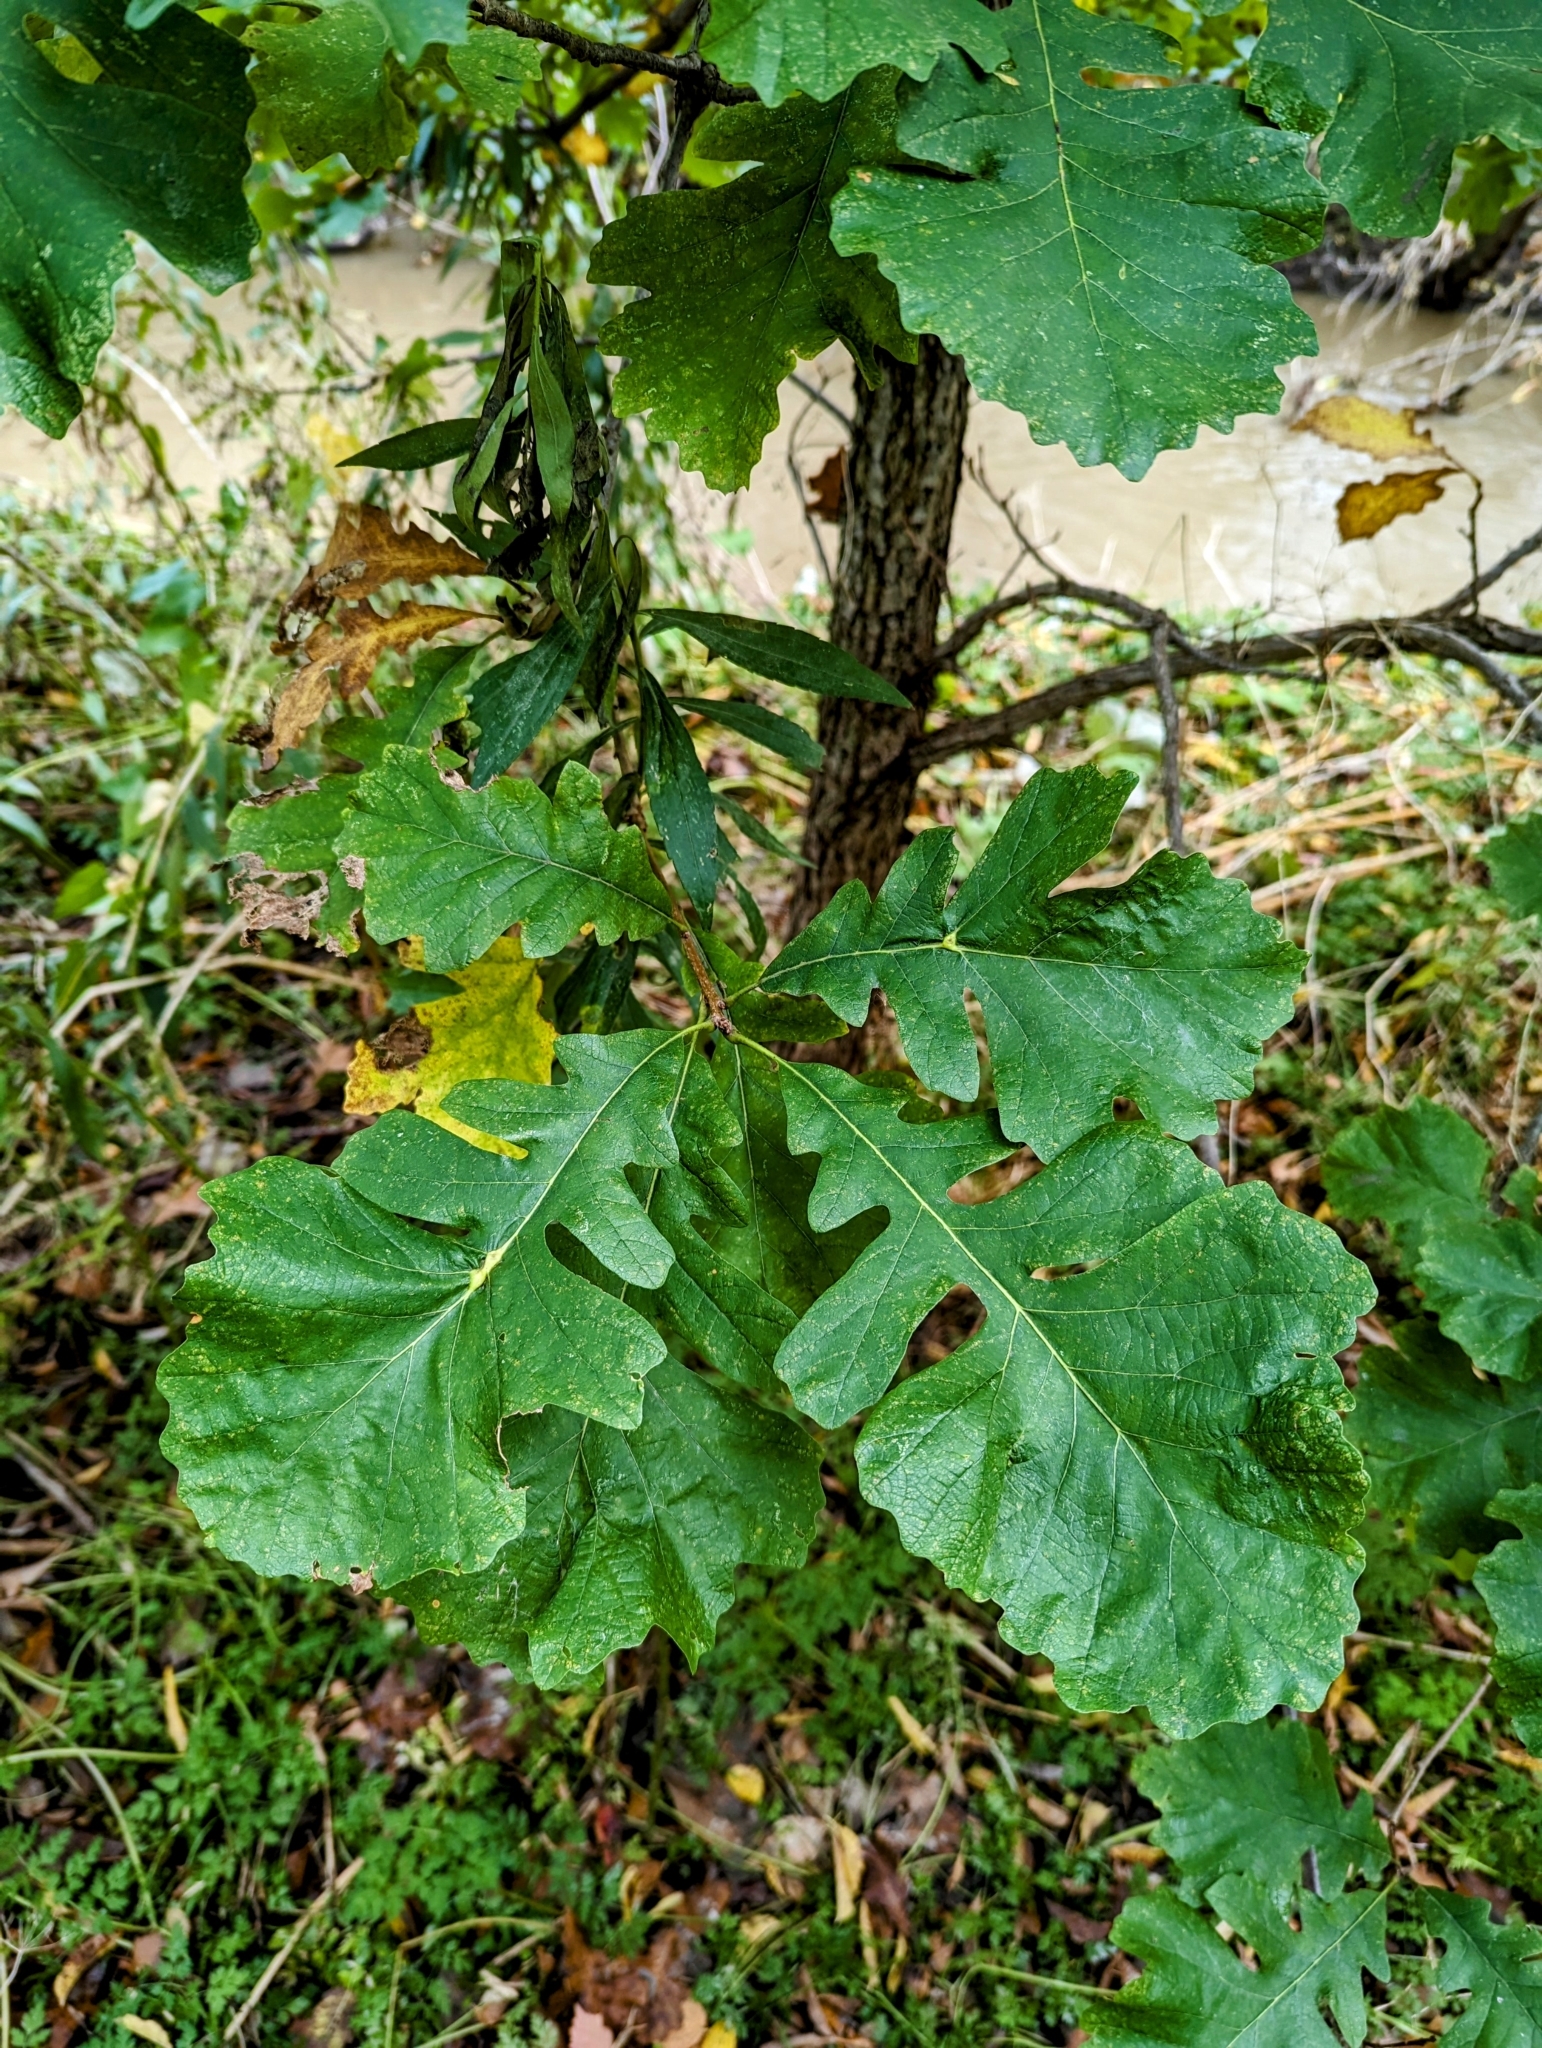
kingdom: Plantae
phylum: Tracheophyta
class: Magnoliopsida
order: Fagales
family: Fagaceae
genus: Quercus
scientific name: Quercus macrocarpa
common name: Bur oak
